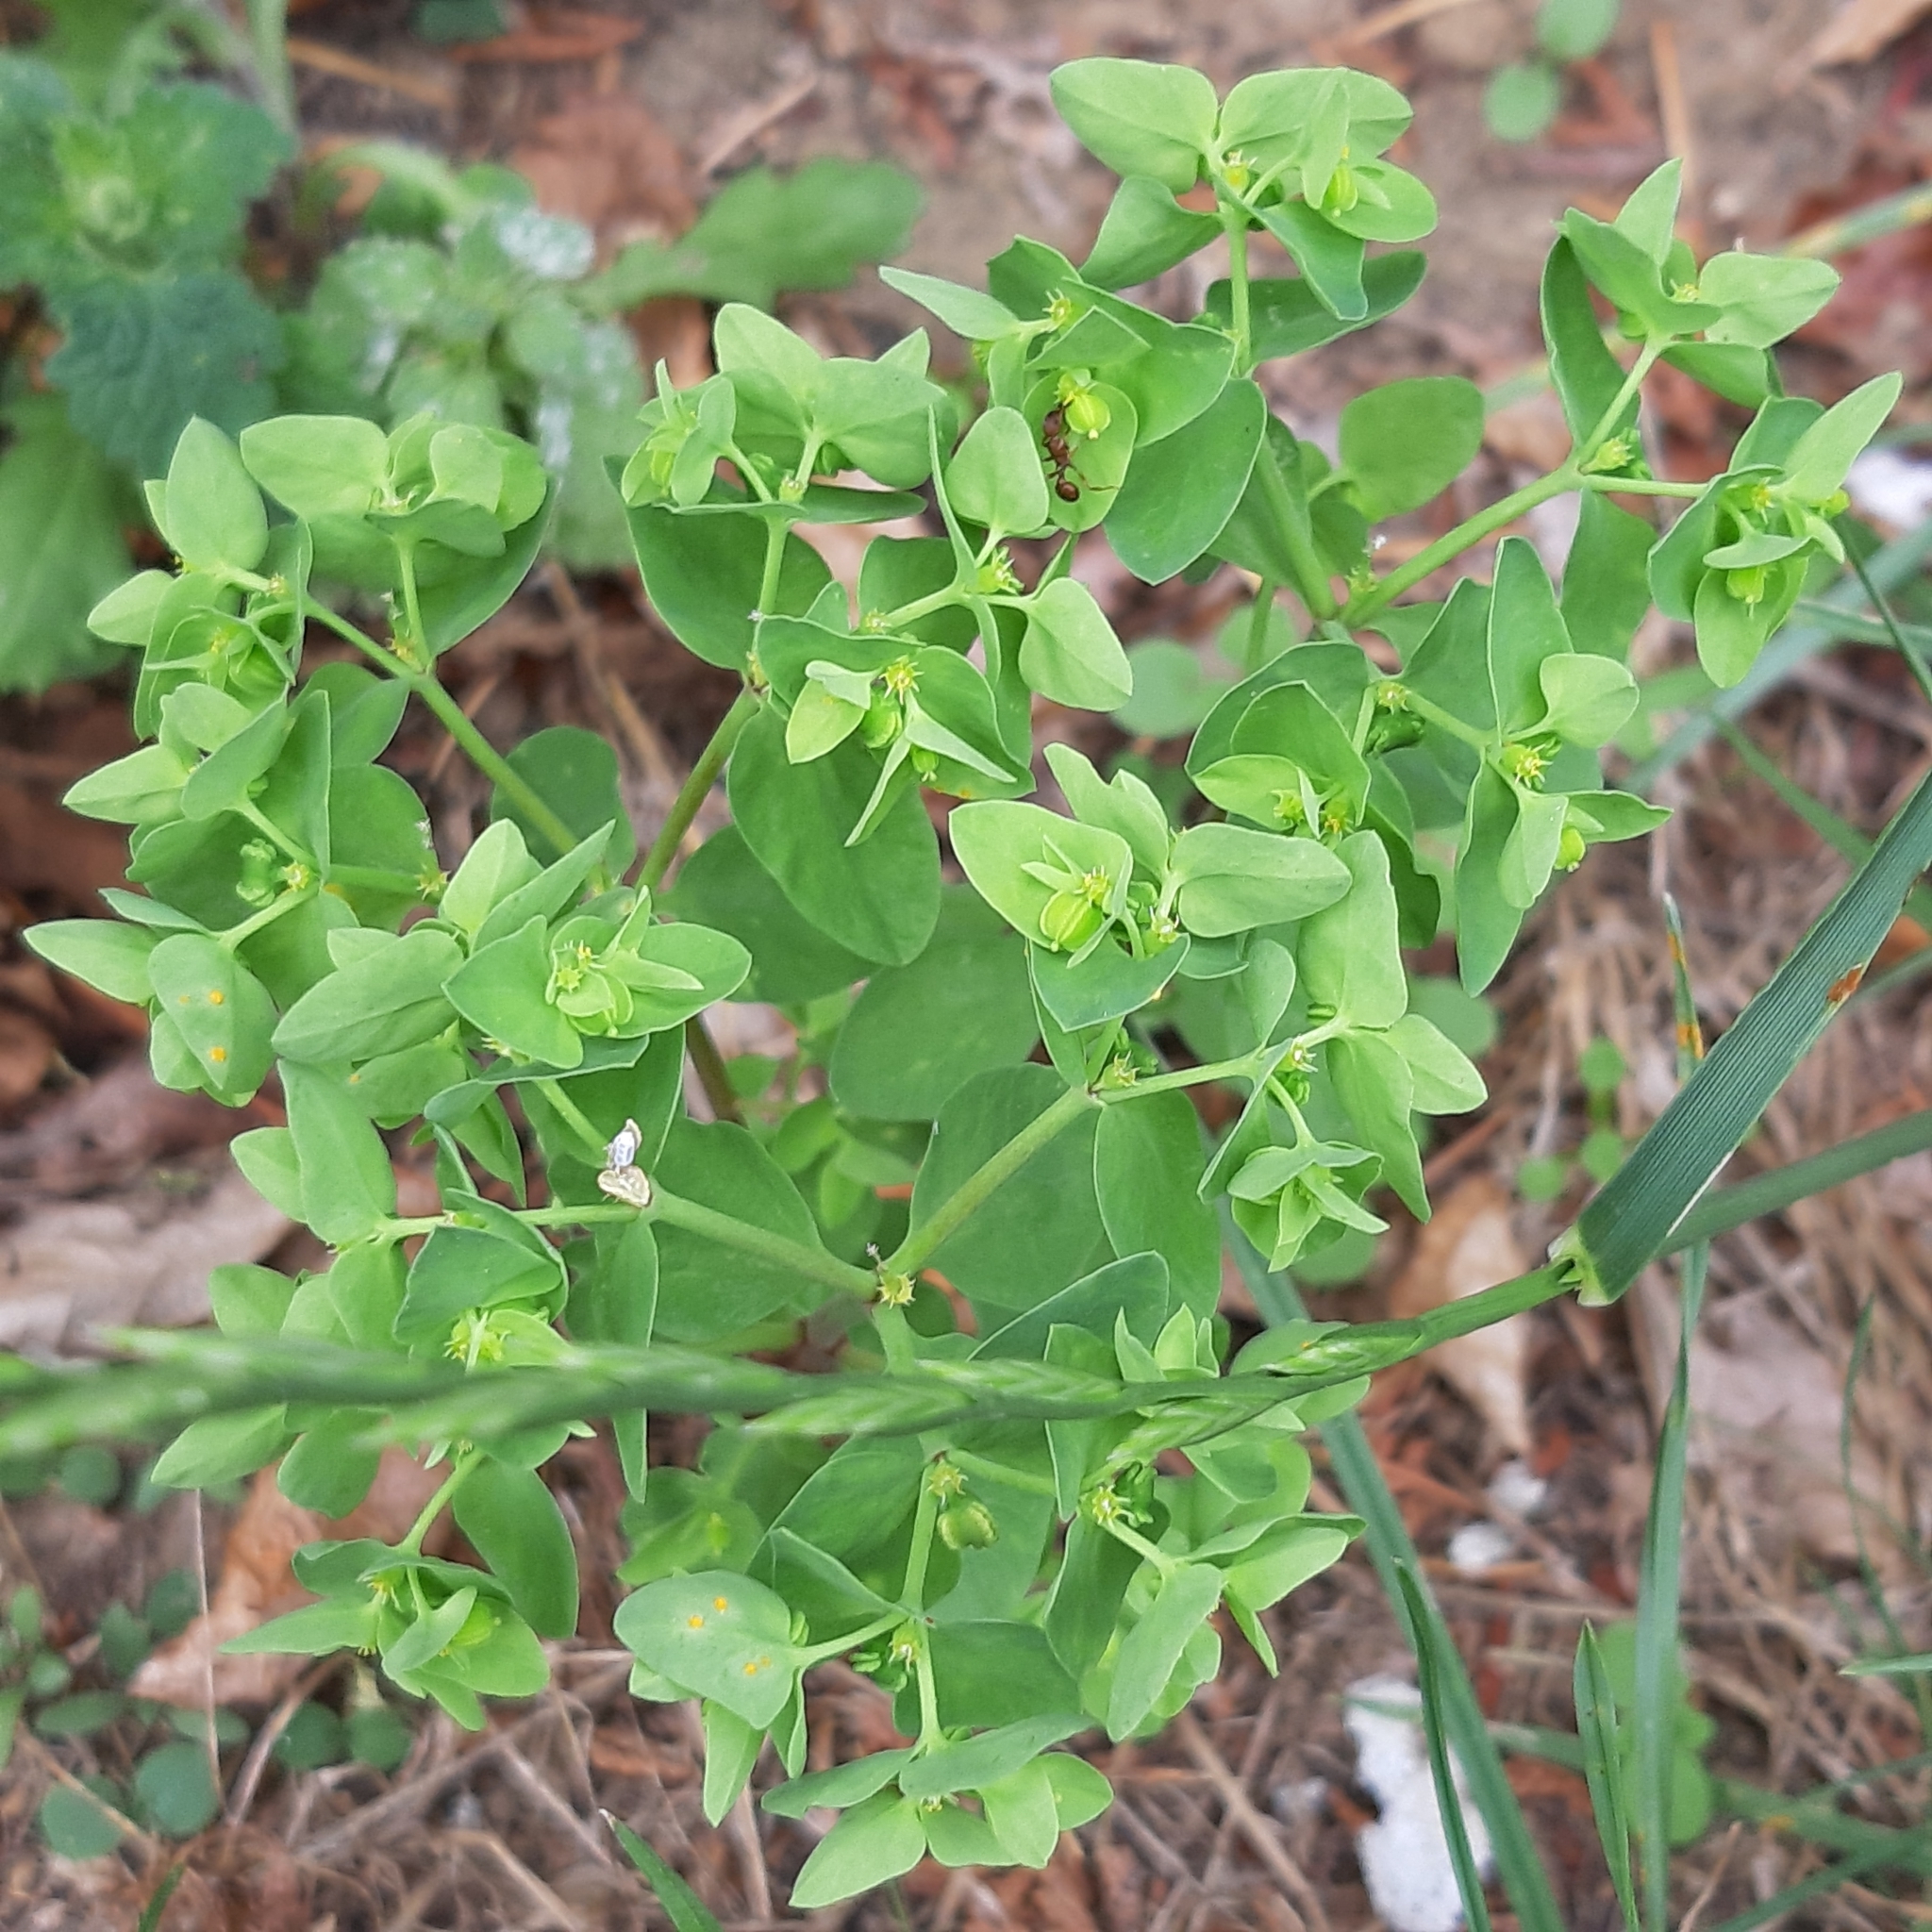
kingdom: Plantae
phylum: Tracheophyta
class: Magnoliopsida
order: Malpighiales
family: Euphorbiaceae
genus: Euphorbia
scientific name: Euphorbia peplus
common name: Petty spurge
